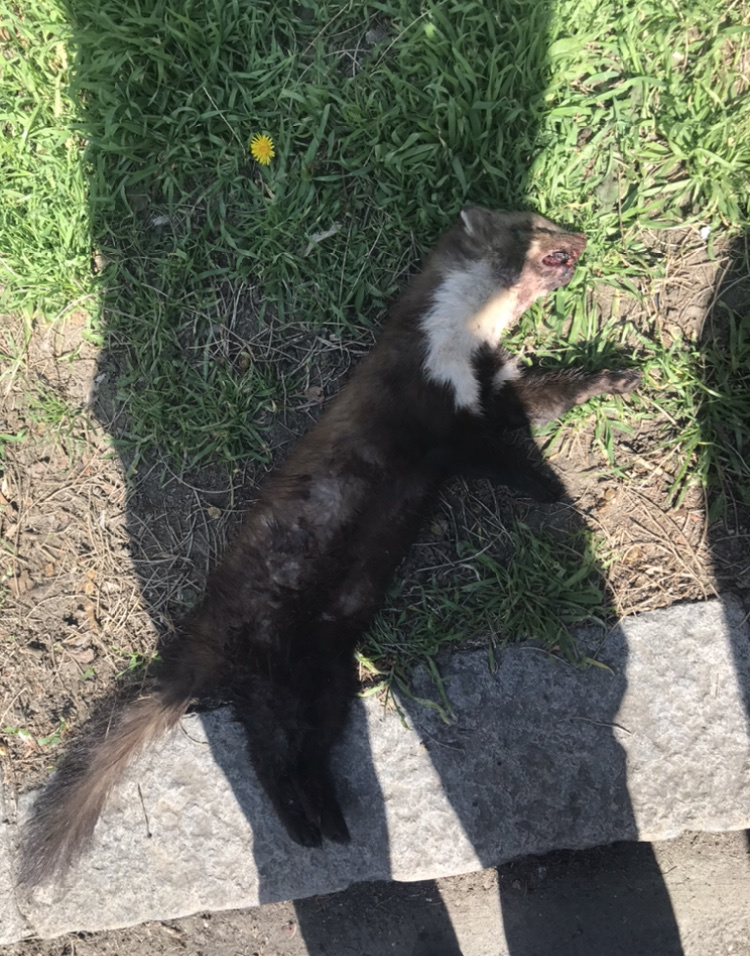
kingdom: Animalia
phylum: Chordata
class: Mammalia
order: Carnivora
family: Mustelidae
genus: Martes
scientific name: Martes foina
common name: Beech marten
